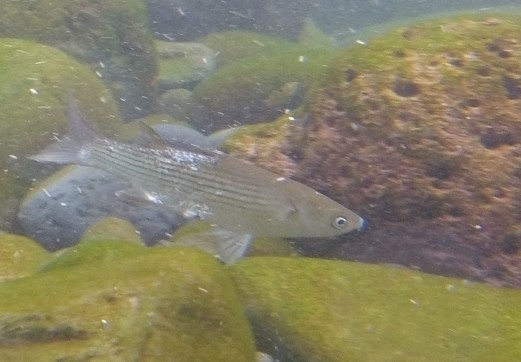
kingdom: Animalia
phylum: Chordata
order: Mugiliformes
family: Mugilidae
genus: Chelon
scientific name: Chelon labrosus
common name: Thick-lipped mullet
